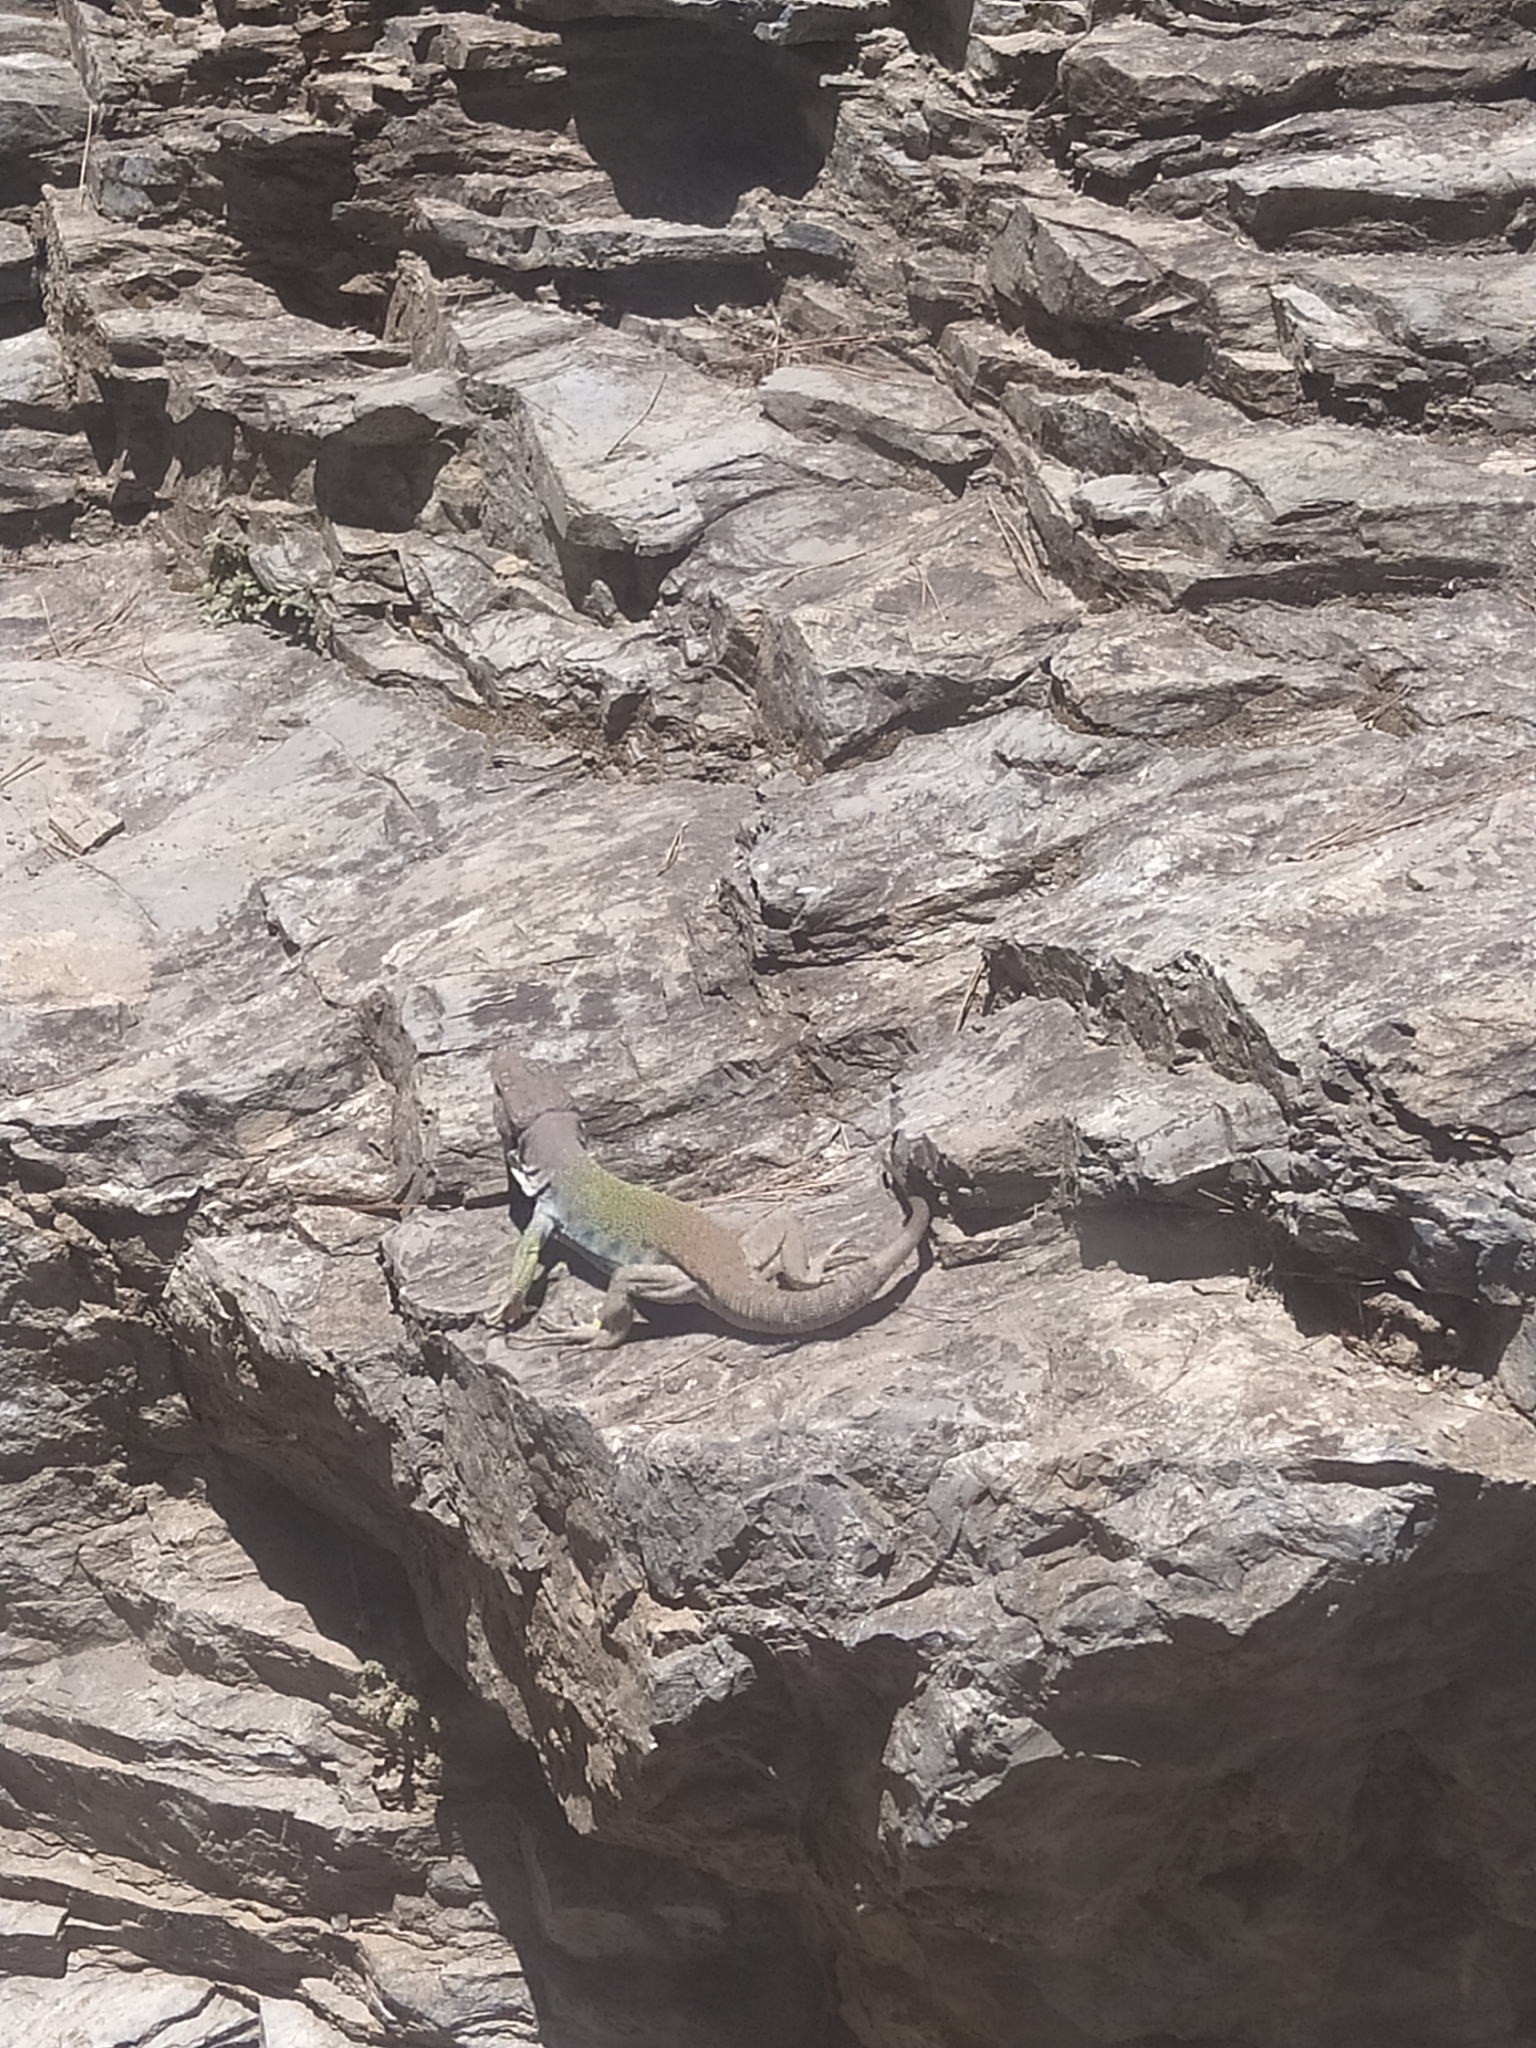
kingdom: Animalia
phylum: Chordata
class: Squamata
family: Lacertidae
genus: Timon
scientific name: Timon nevadensis
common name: Sierra nevada (ocellated) lizard
